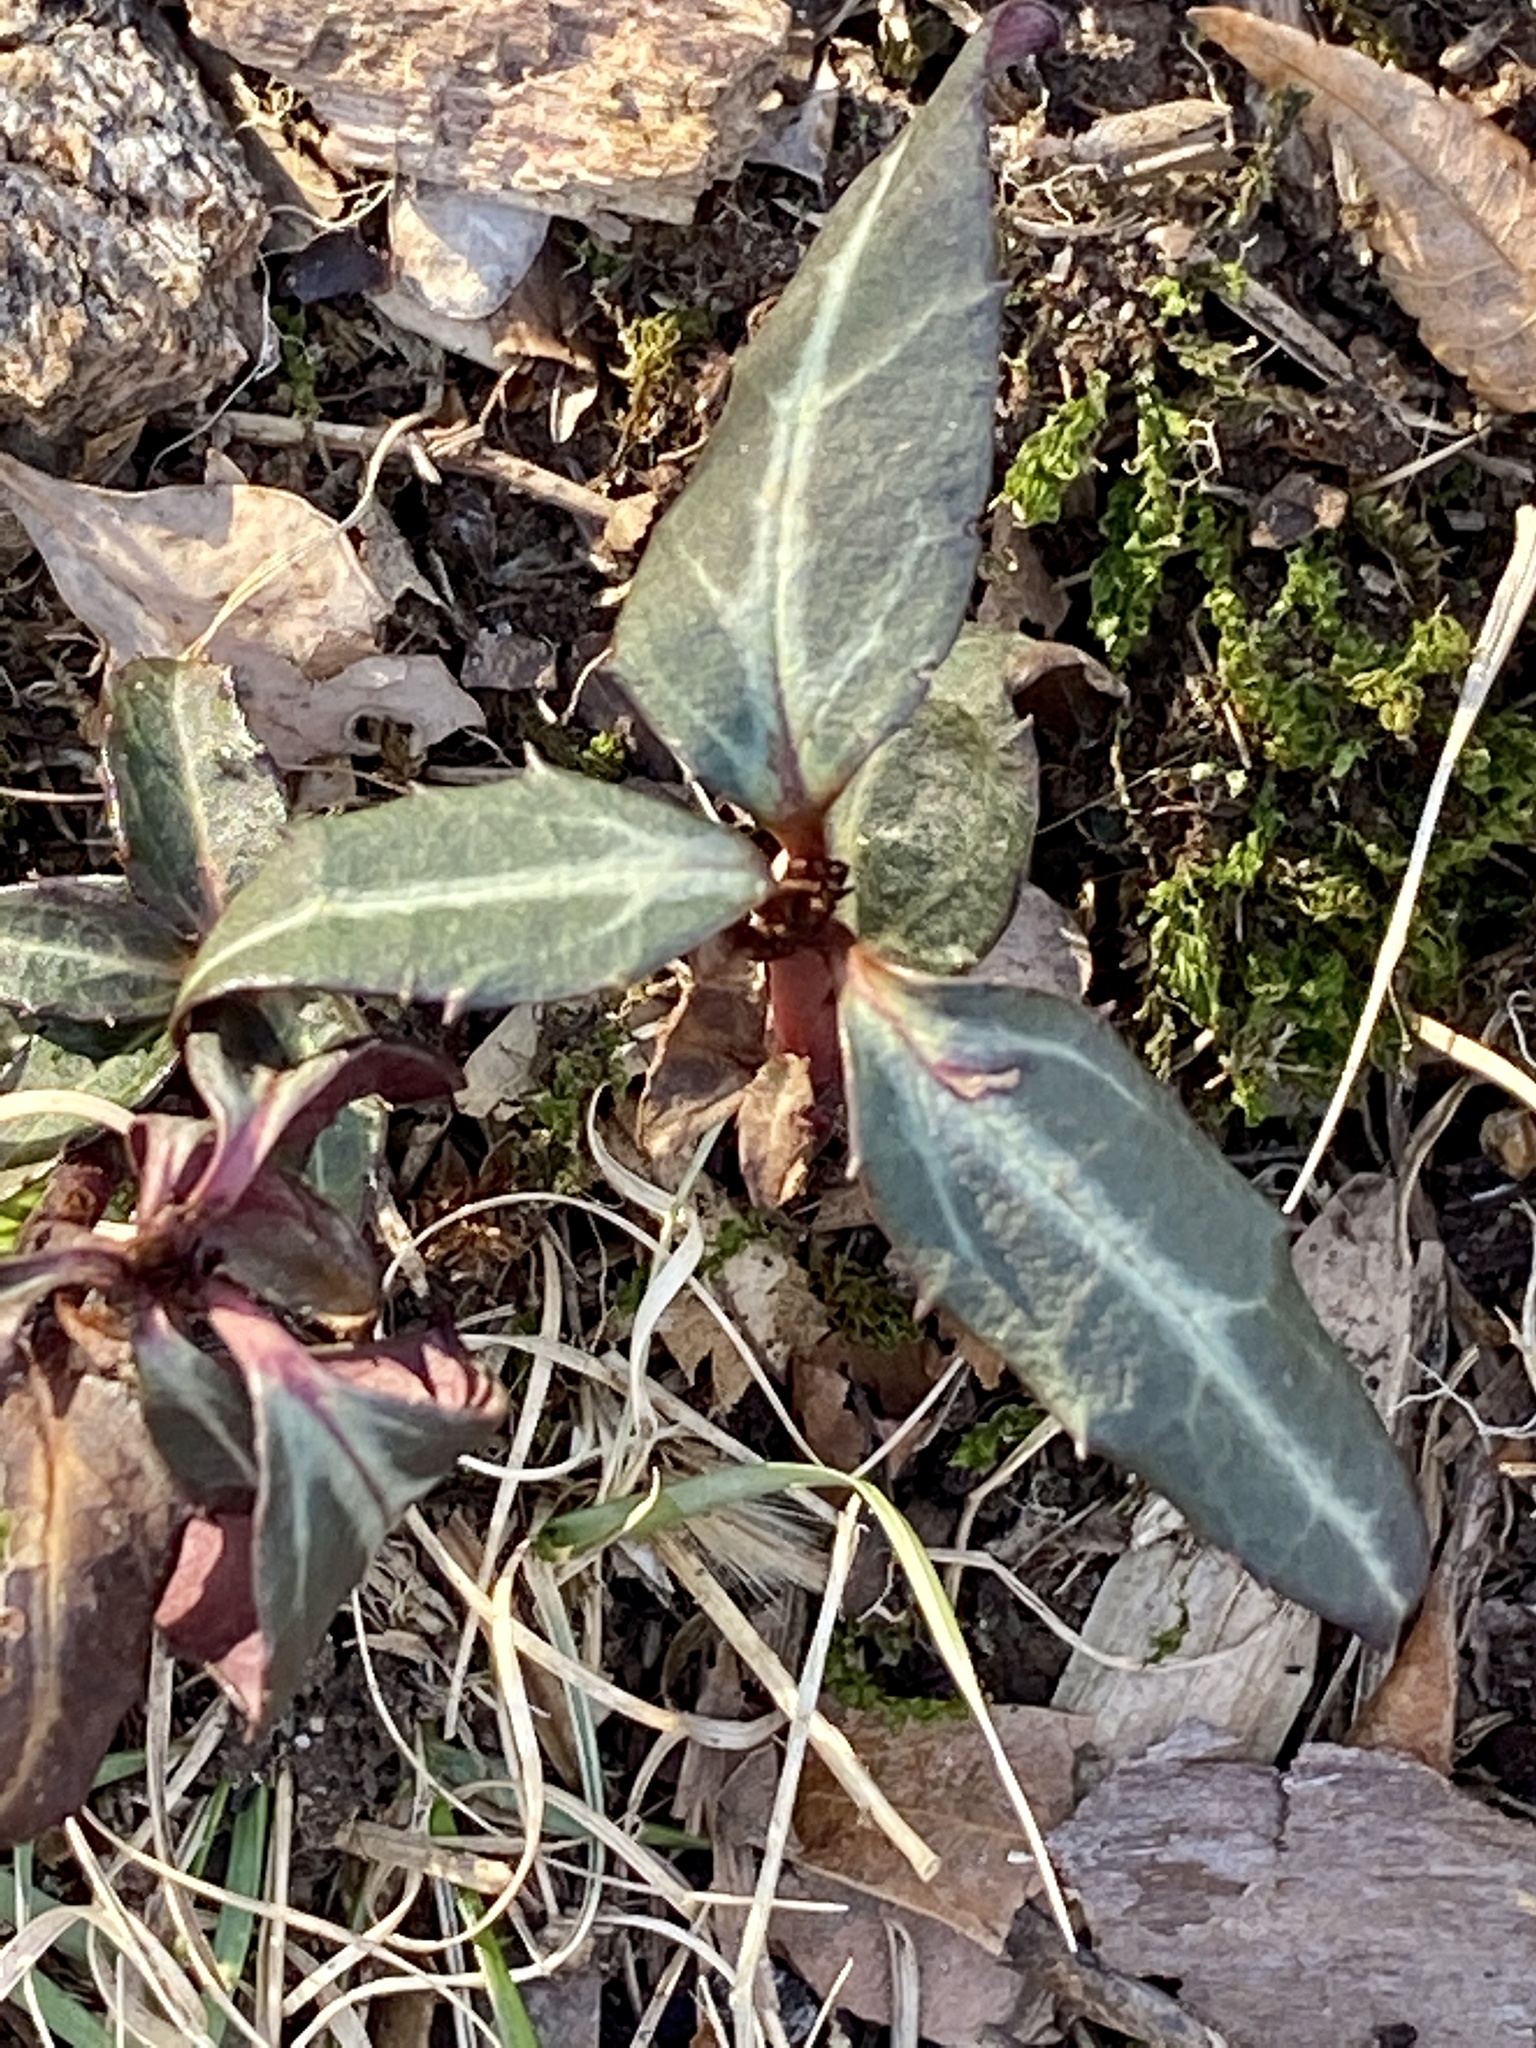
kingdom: Plantae
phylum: Tracheophyta
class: Magnoliopsida
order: Ericales
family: Ericaceae
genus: Chimaphila
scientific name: Chimaphila maculata
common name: Spotted pipsissewa
